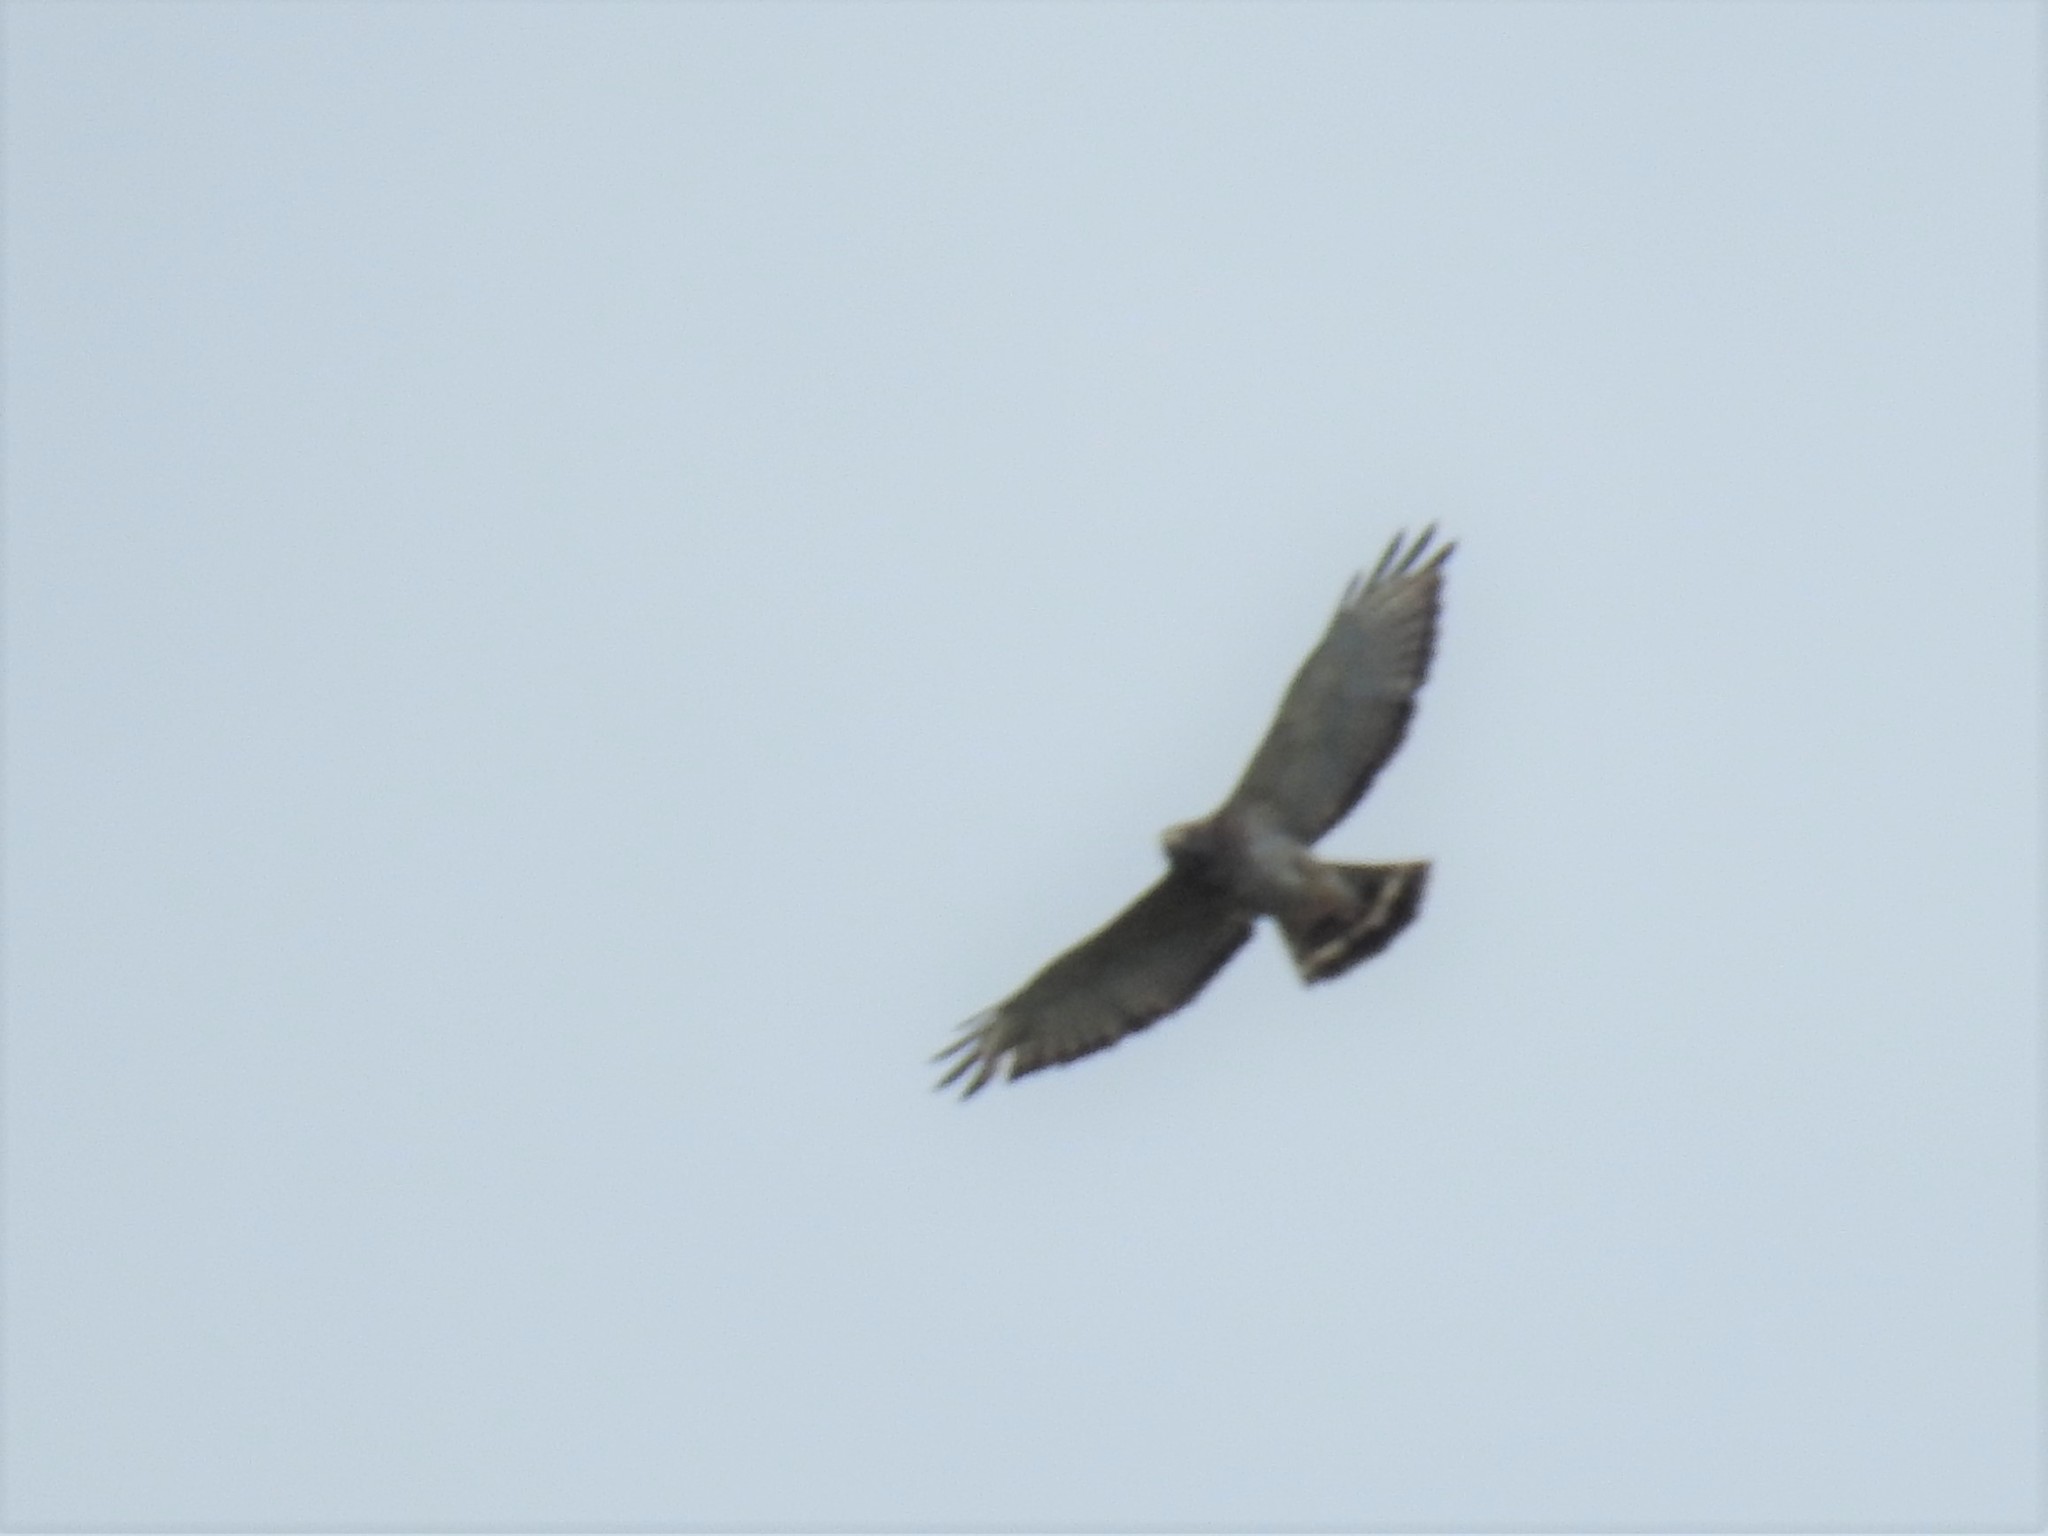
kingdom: Animalia
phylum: Chordata
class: Aves
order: Accipitriformes
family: Accipitridae
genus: Buteo
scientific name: Buteo platypterus
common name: Broad-winged hawk
